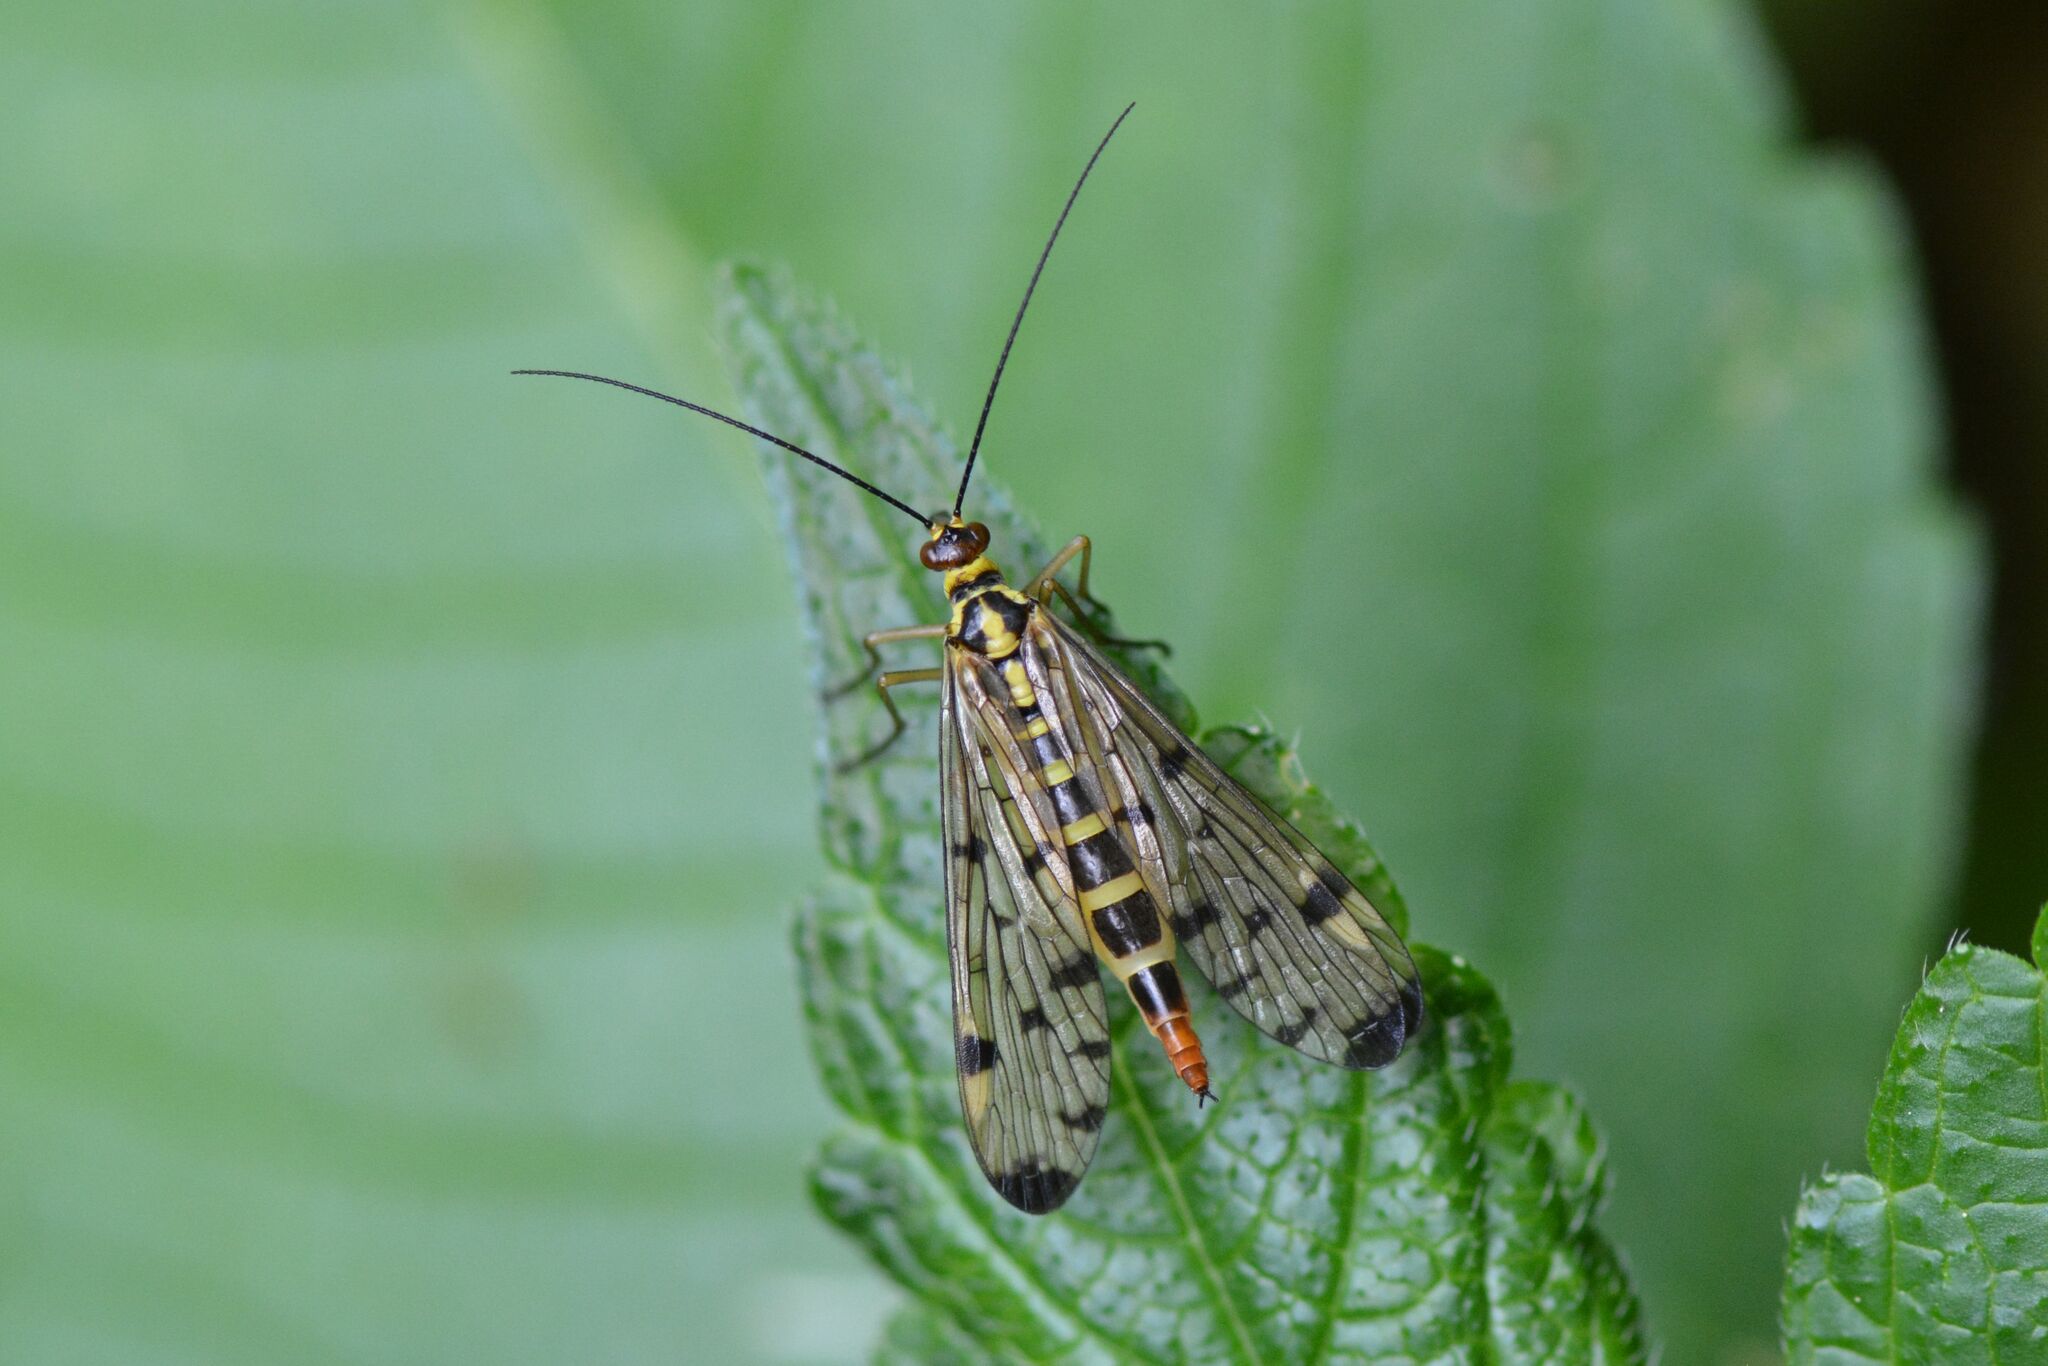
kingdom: Animalia
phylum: Arthropoda
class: Insecta
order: Mecoptera
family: Panorpidae
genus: Panorpa
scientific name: Panorpa germanica
